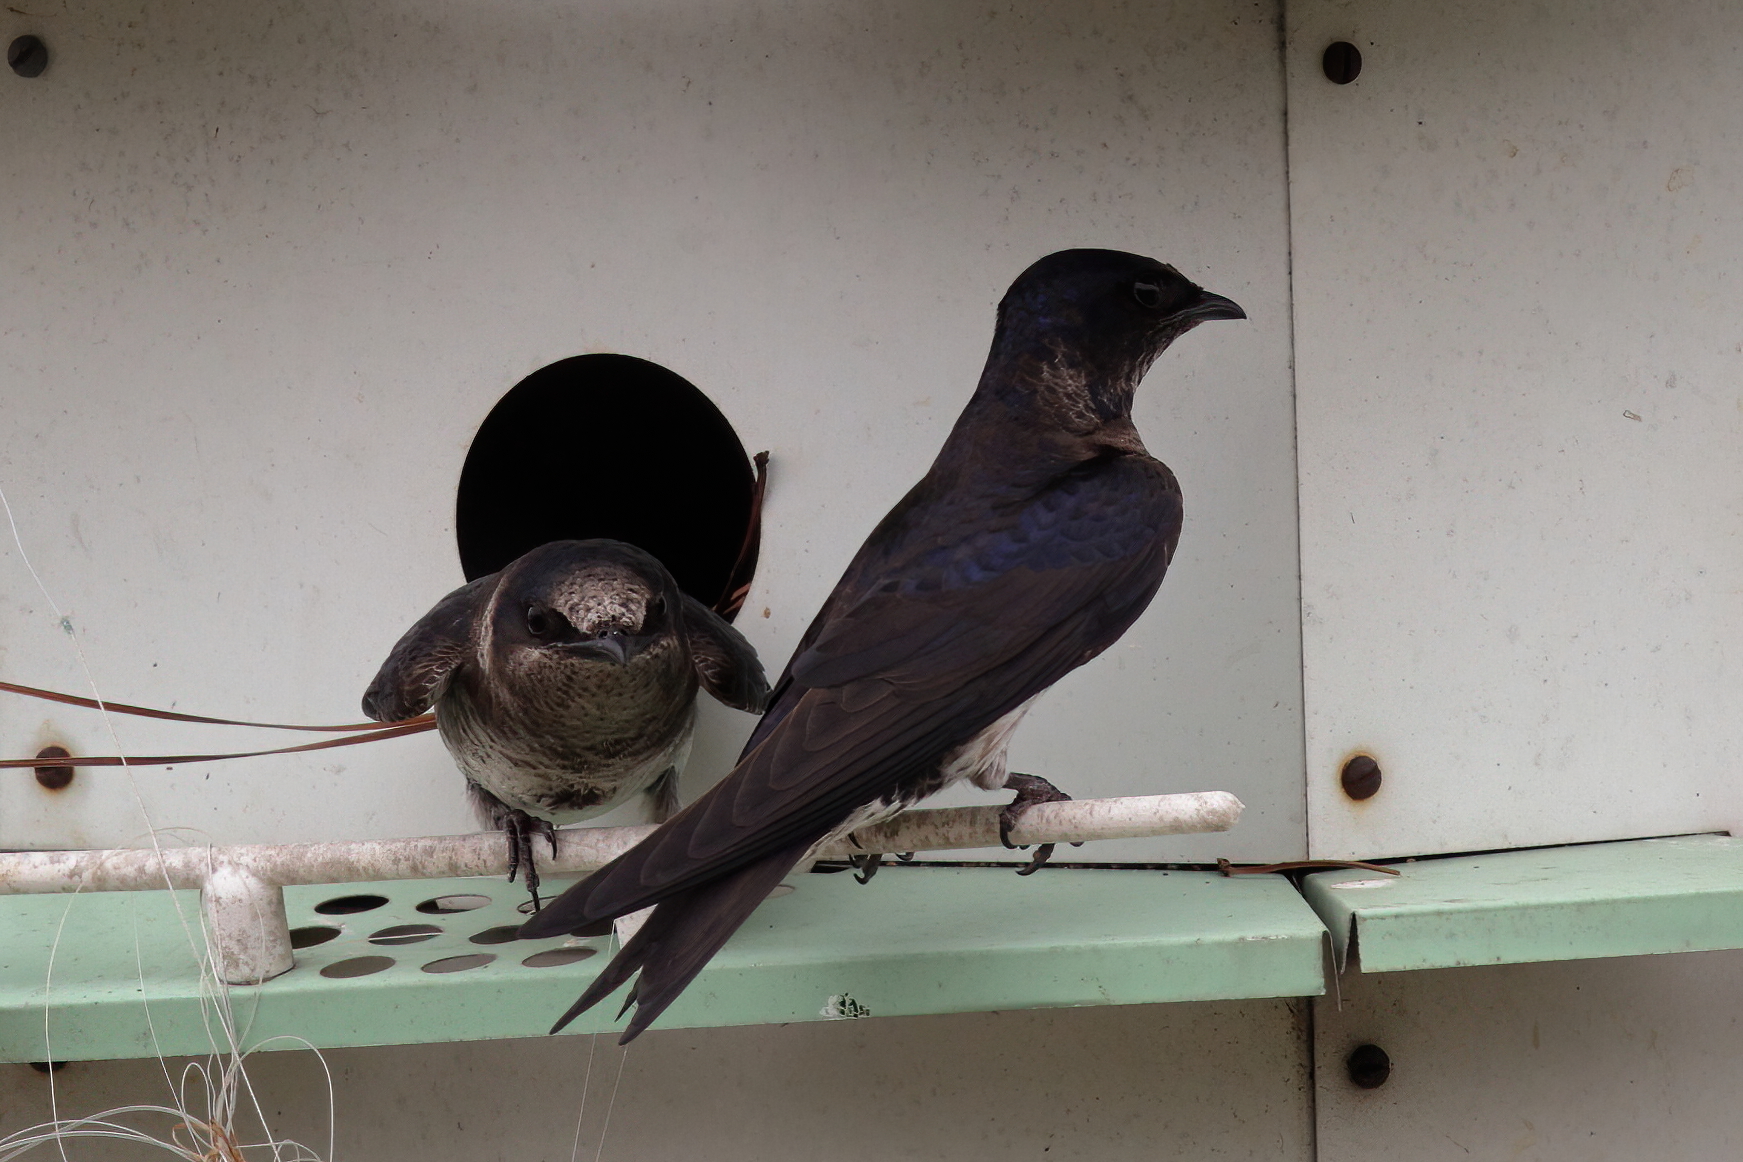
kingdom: Animalia
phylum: Chordata
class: Aves
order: Passeriformes
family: Hirundinidae
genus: Progne
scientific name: Progne subis
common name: Purple martin
